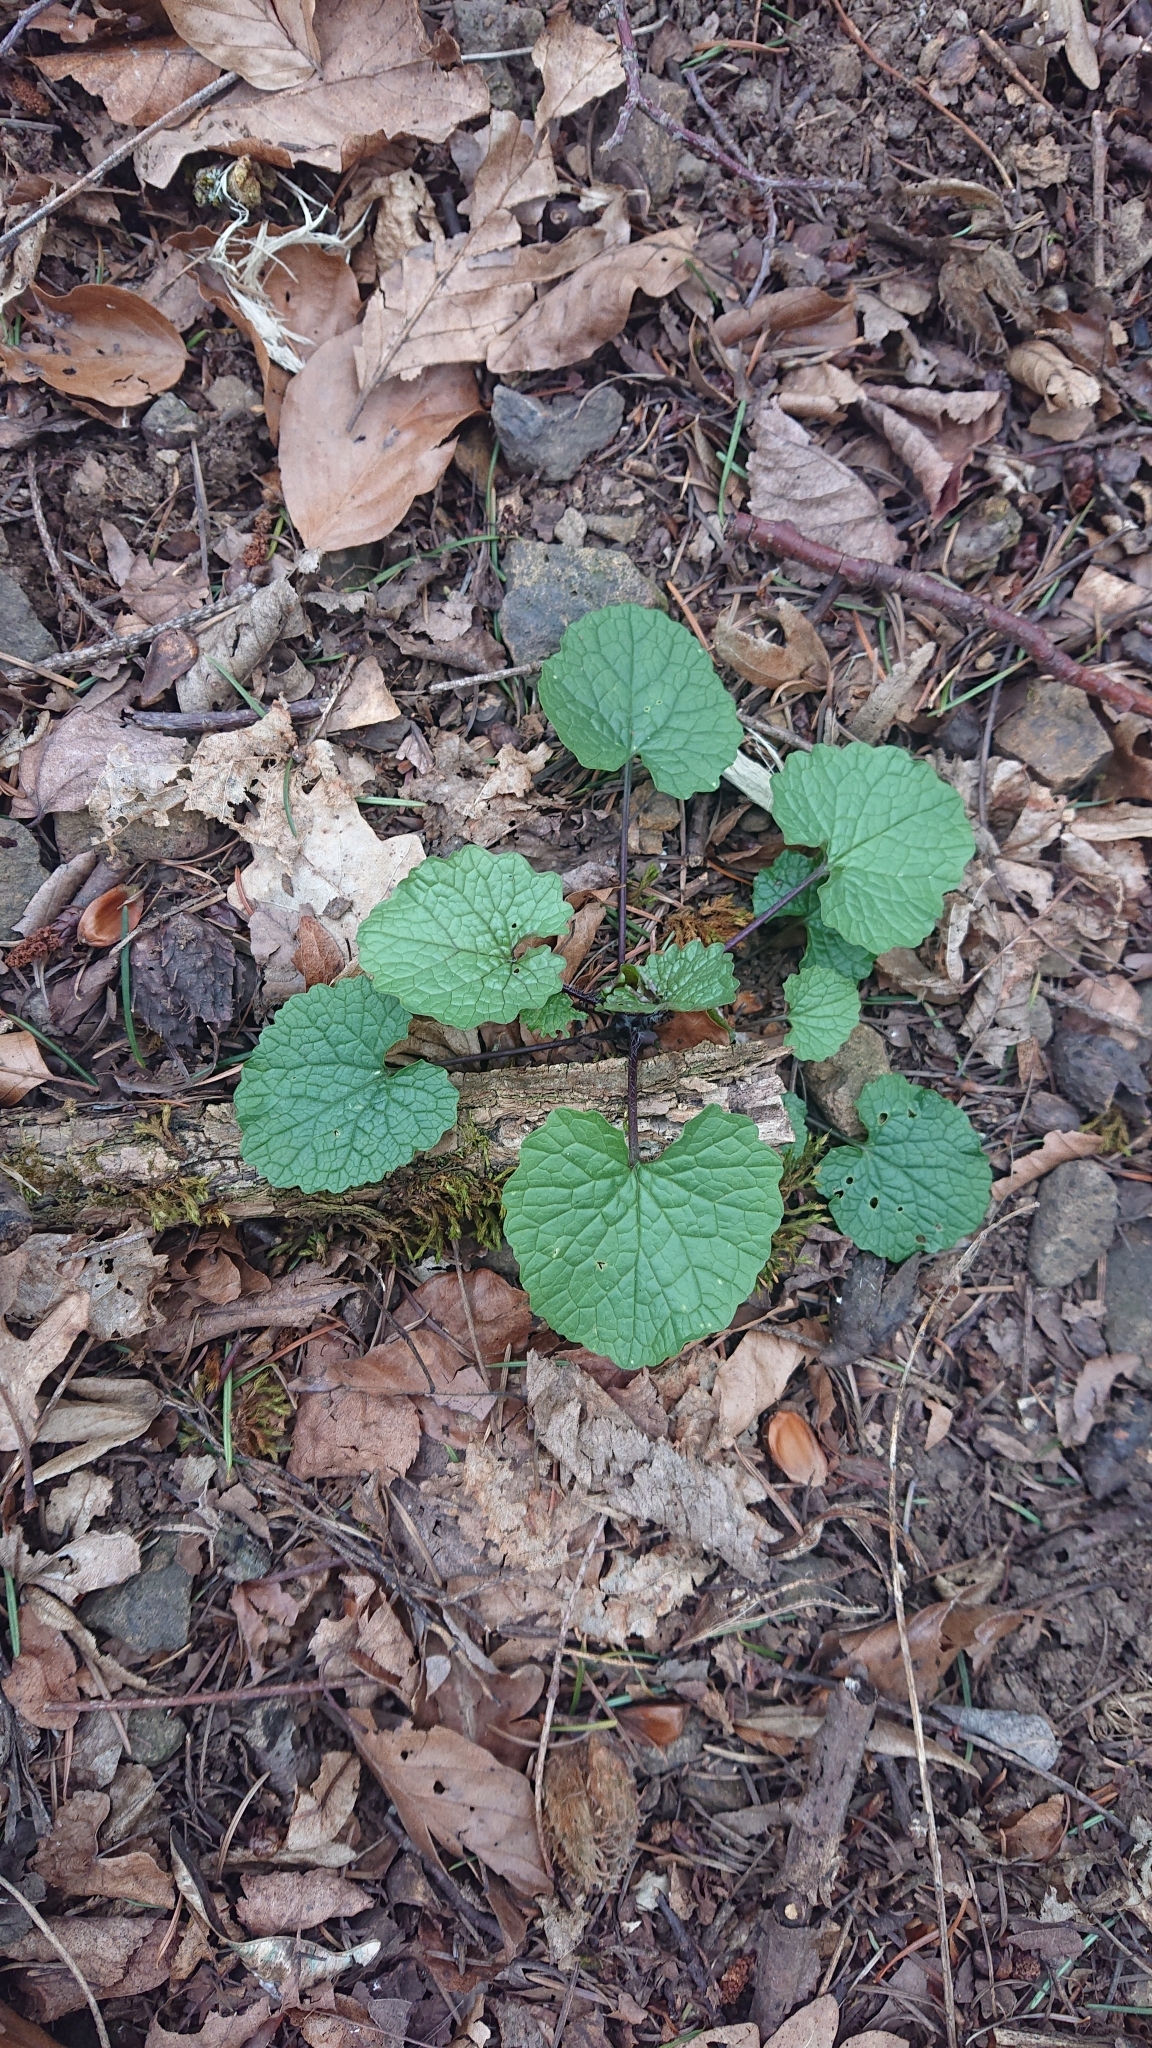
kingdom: Plantae
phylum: Tracheophyta
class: Magnoliopsida
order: Brassicales
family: Brassicaceae
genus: Alliaria
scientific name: Alliaria petiolata
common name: Garlic mustard
